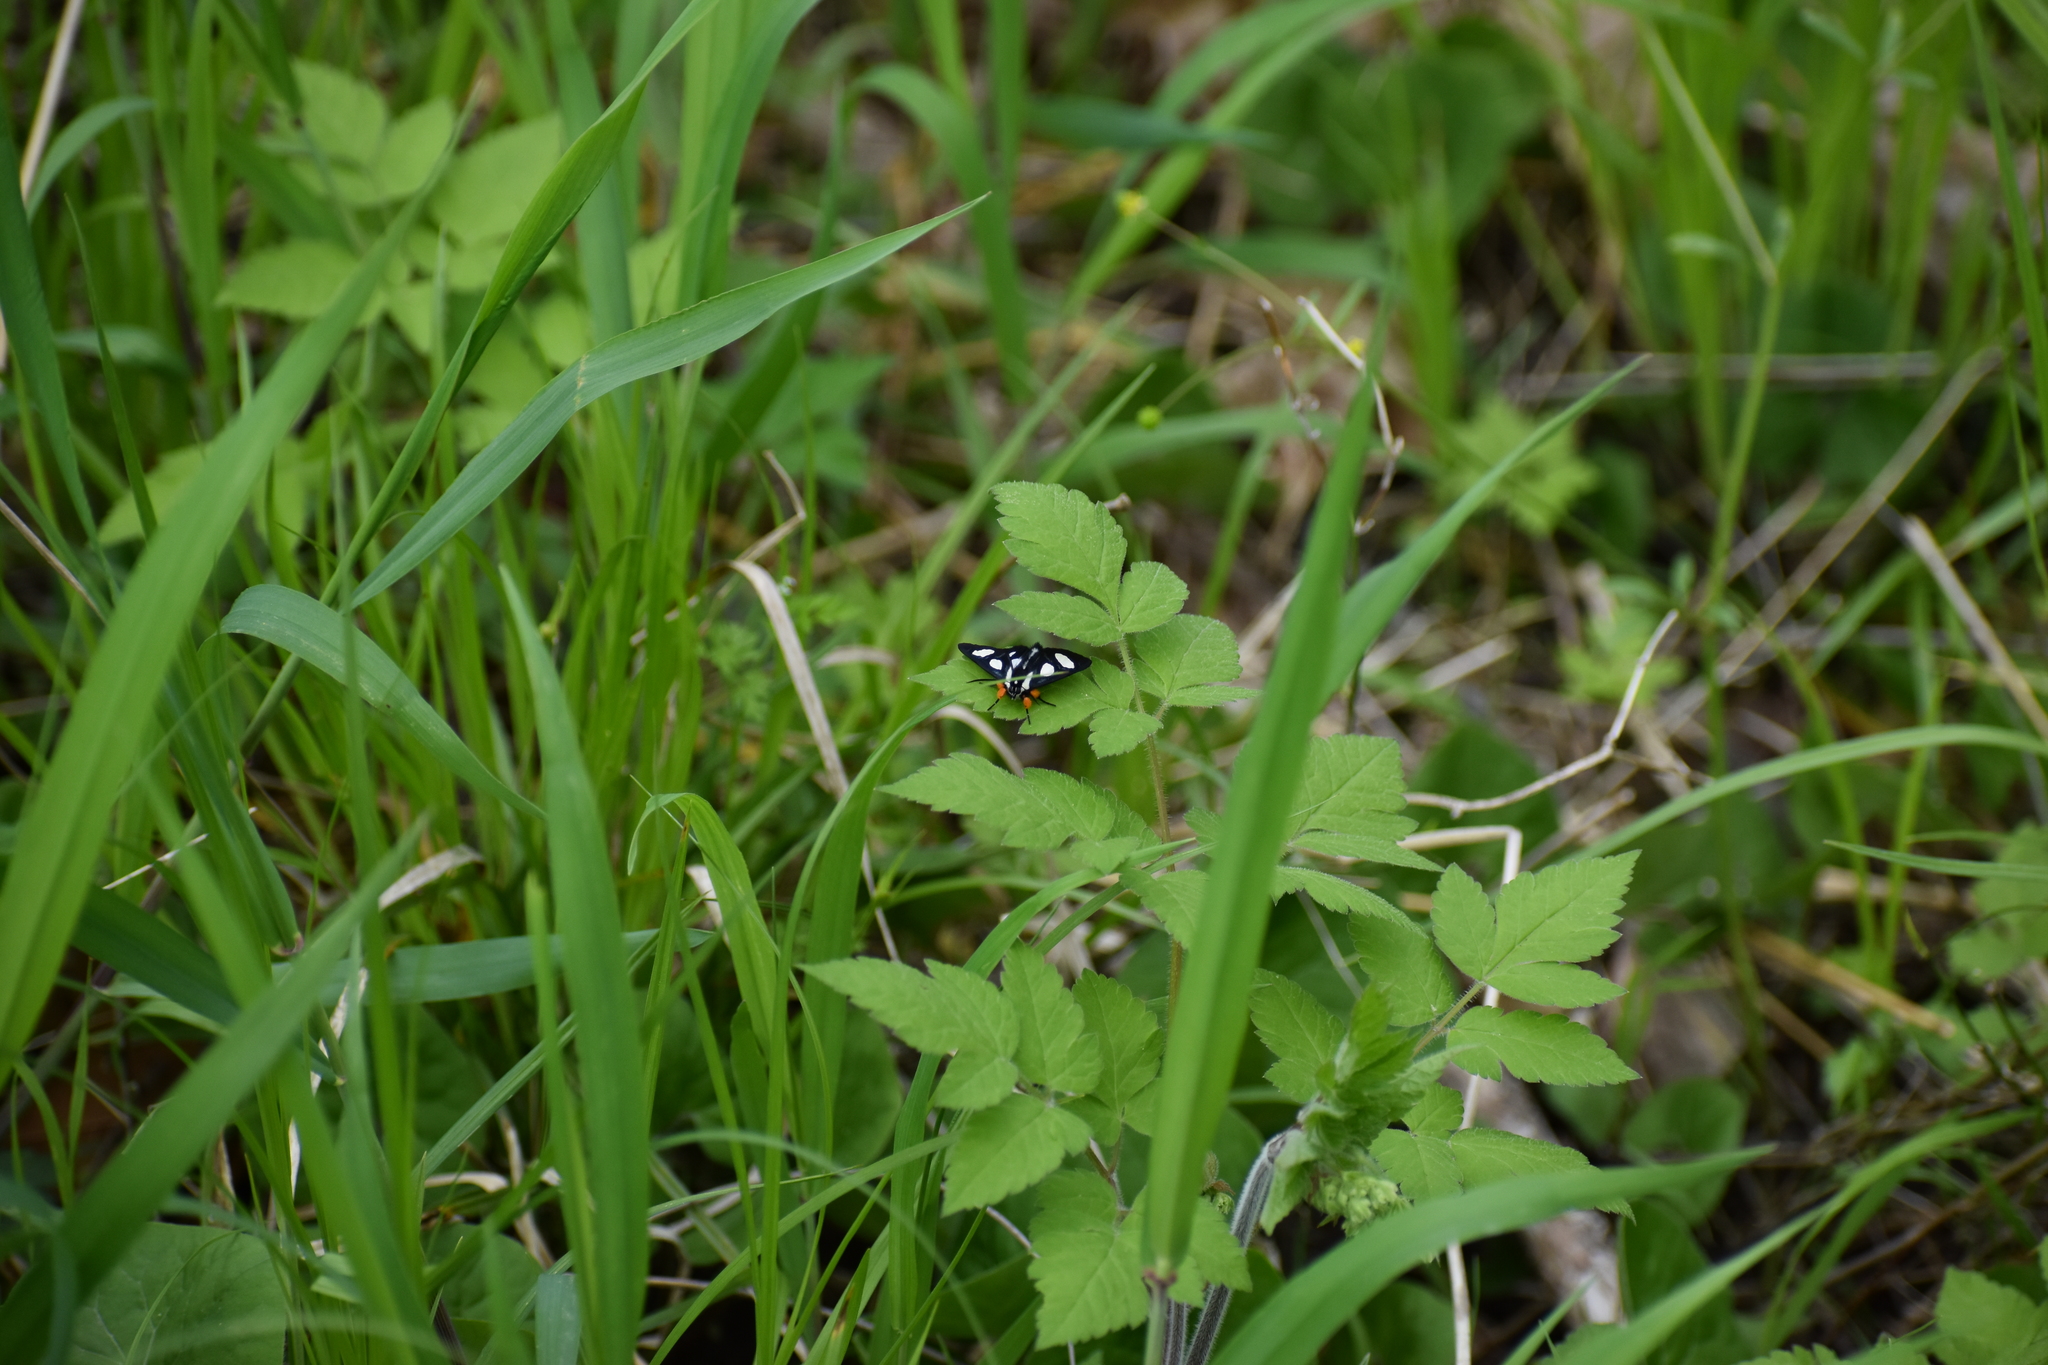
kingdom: Animalia
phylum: Arthropoda
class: Insecta
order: Lepidoptera
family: Noctuidae
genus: Alypia
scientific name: Alypia octomaculata
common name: Eight-spotted forester
